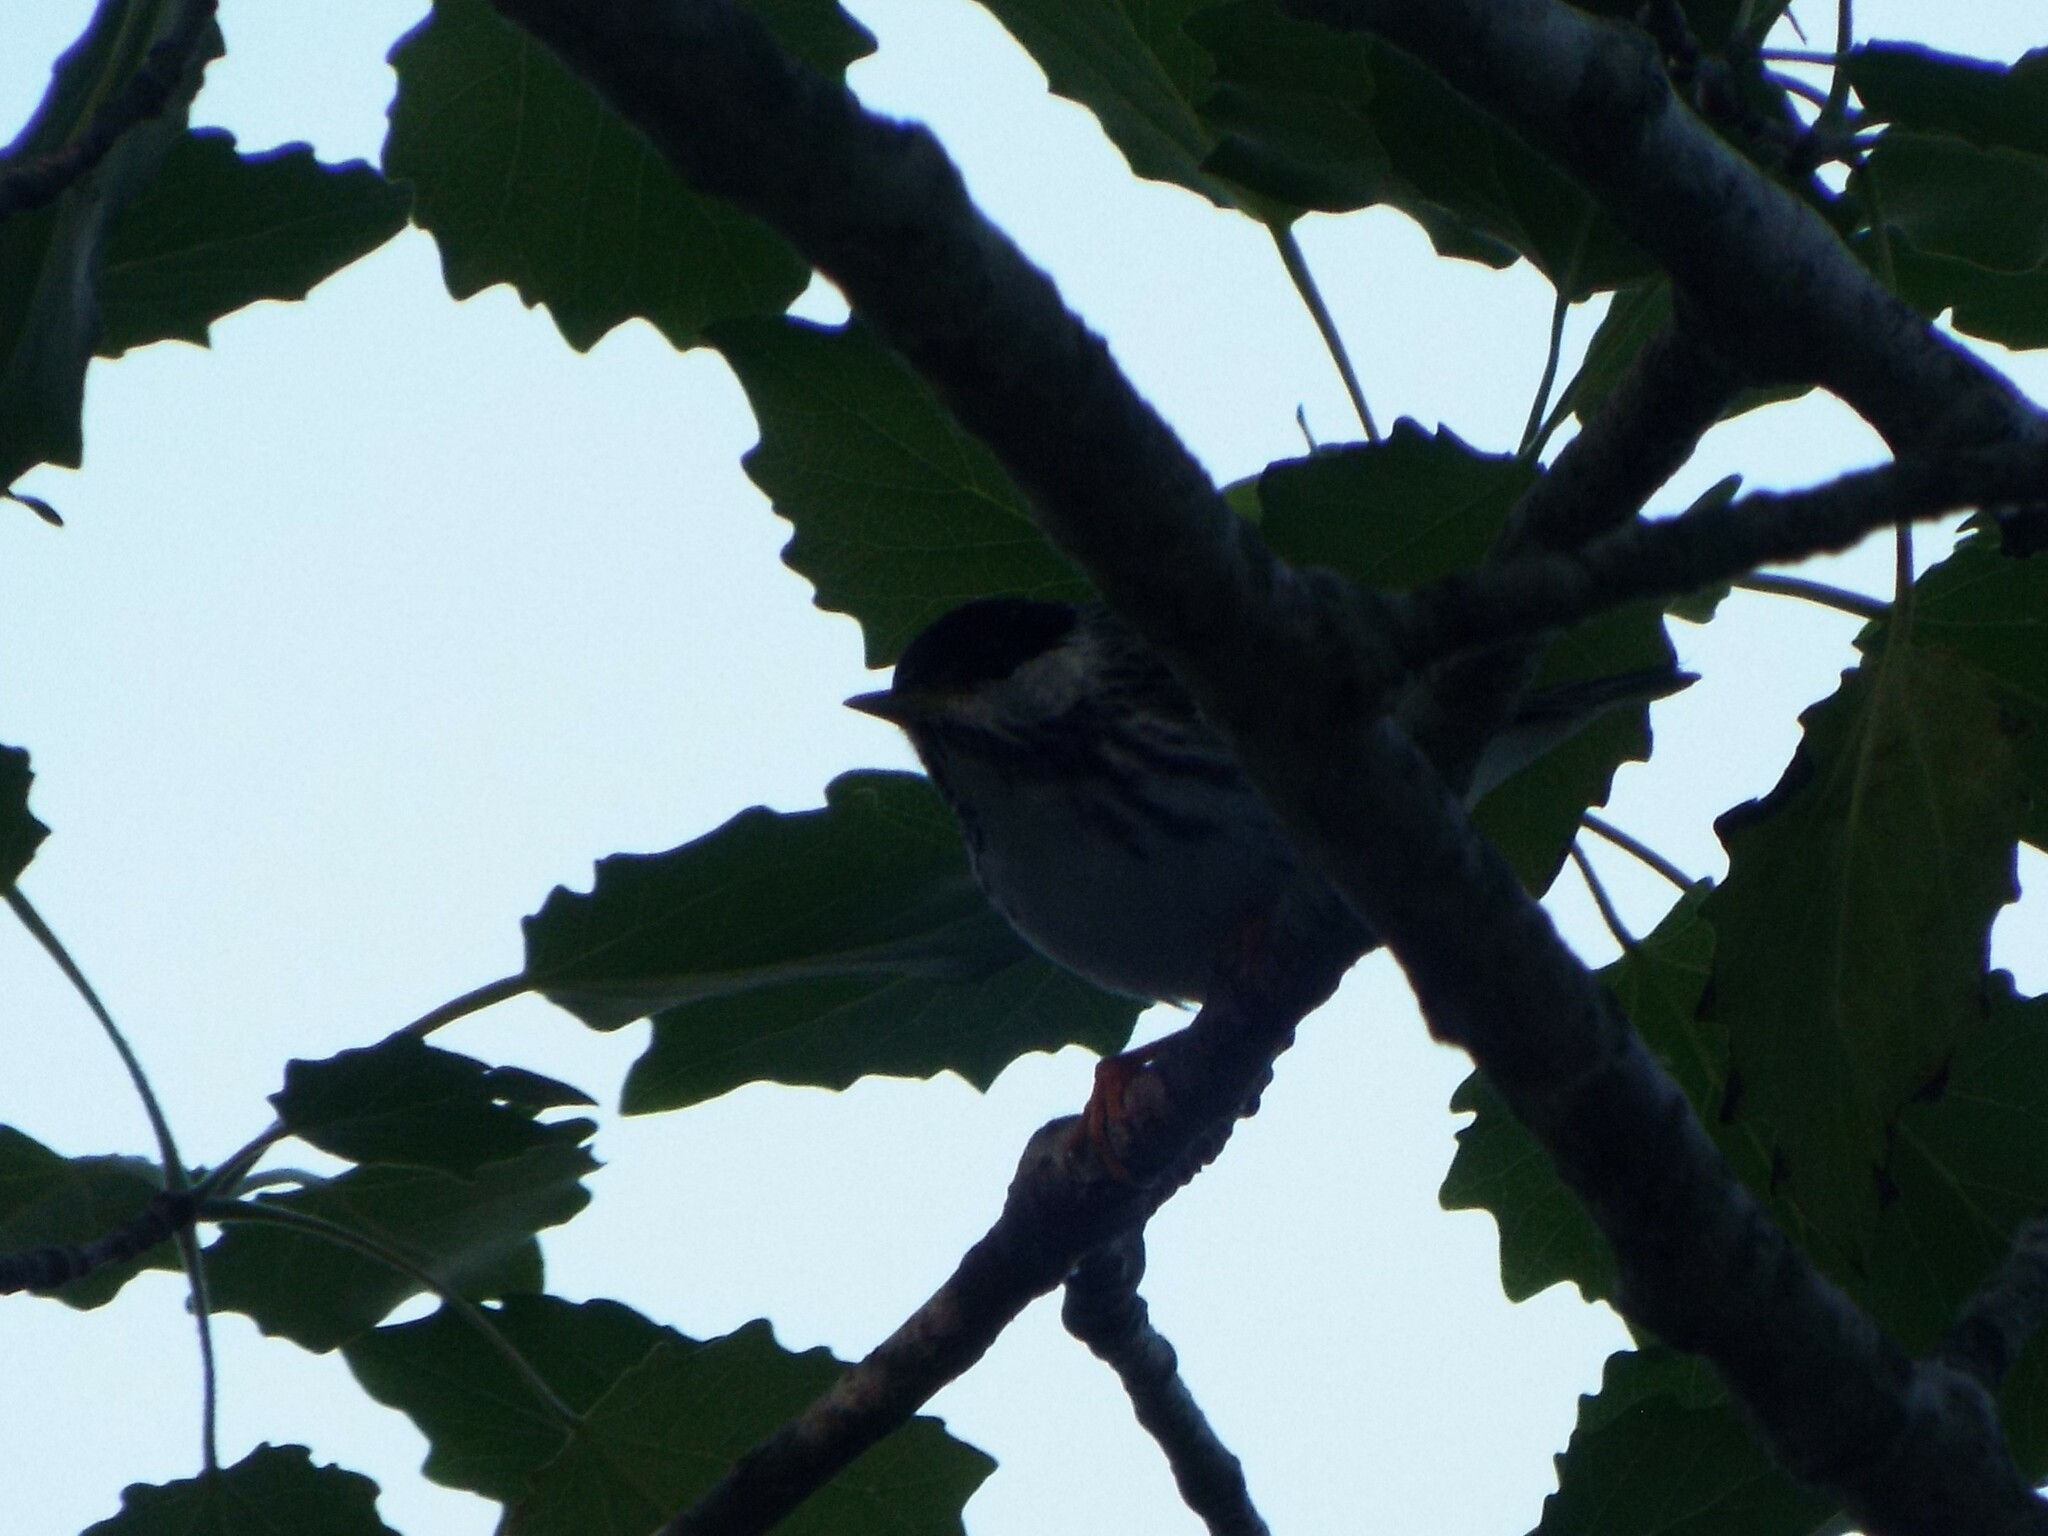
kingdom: Animalia
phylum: Chordata
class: Aves
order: Passeriformes
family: Parulidae
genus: Setophaga
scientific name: Setophaga striata
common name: Blackpoll warbler
